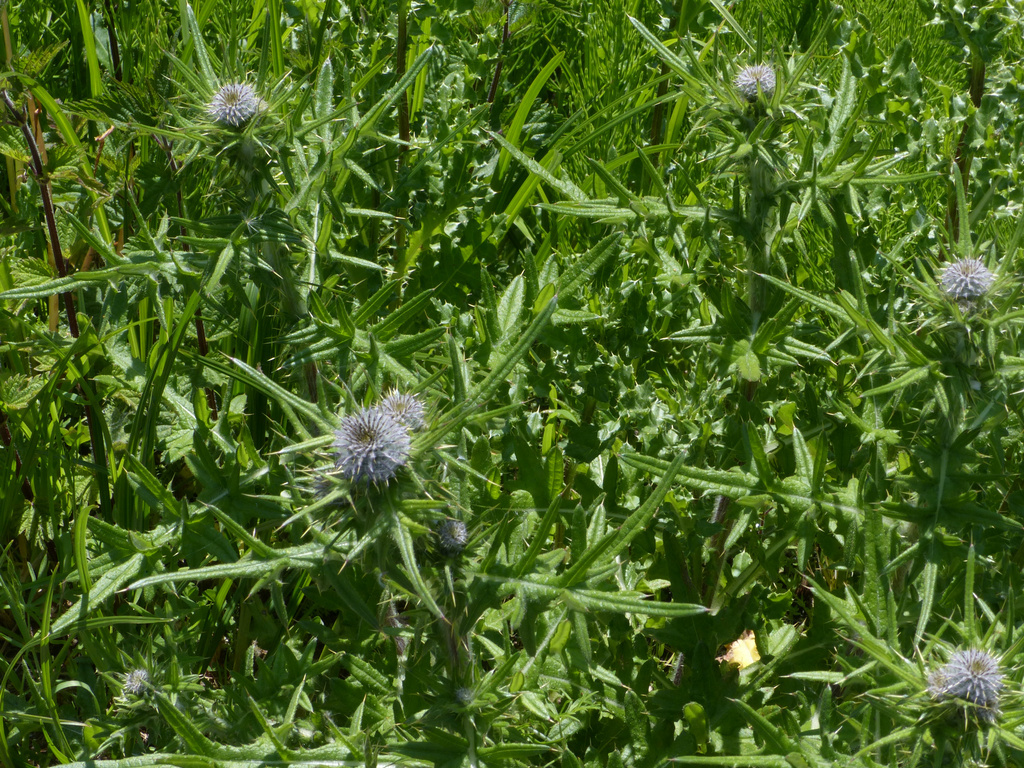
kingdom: Plantae
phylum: Tracheophyta
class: Magnoliopsida
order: Asterales
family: Asteraceae
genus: Cirsium
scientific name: Cirsium vulgare
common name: Bull thistle
